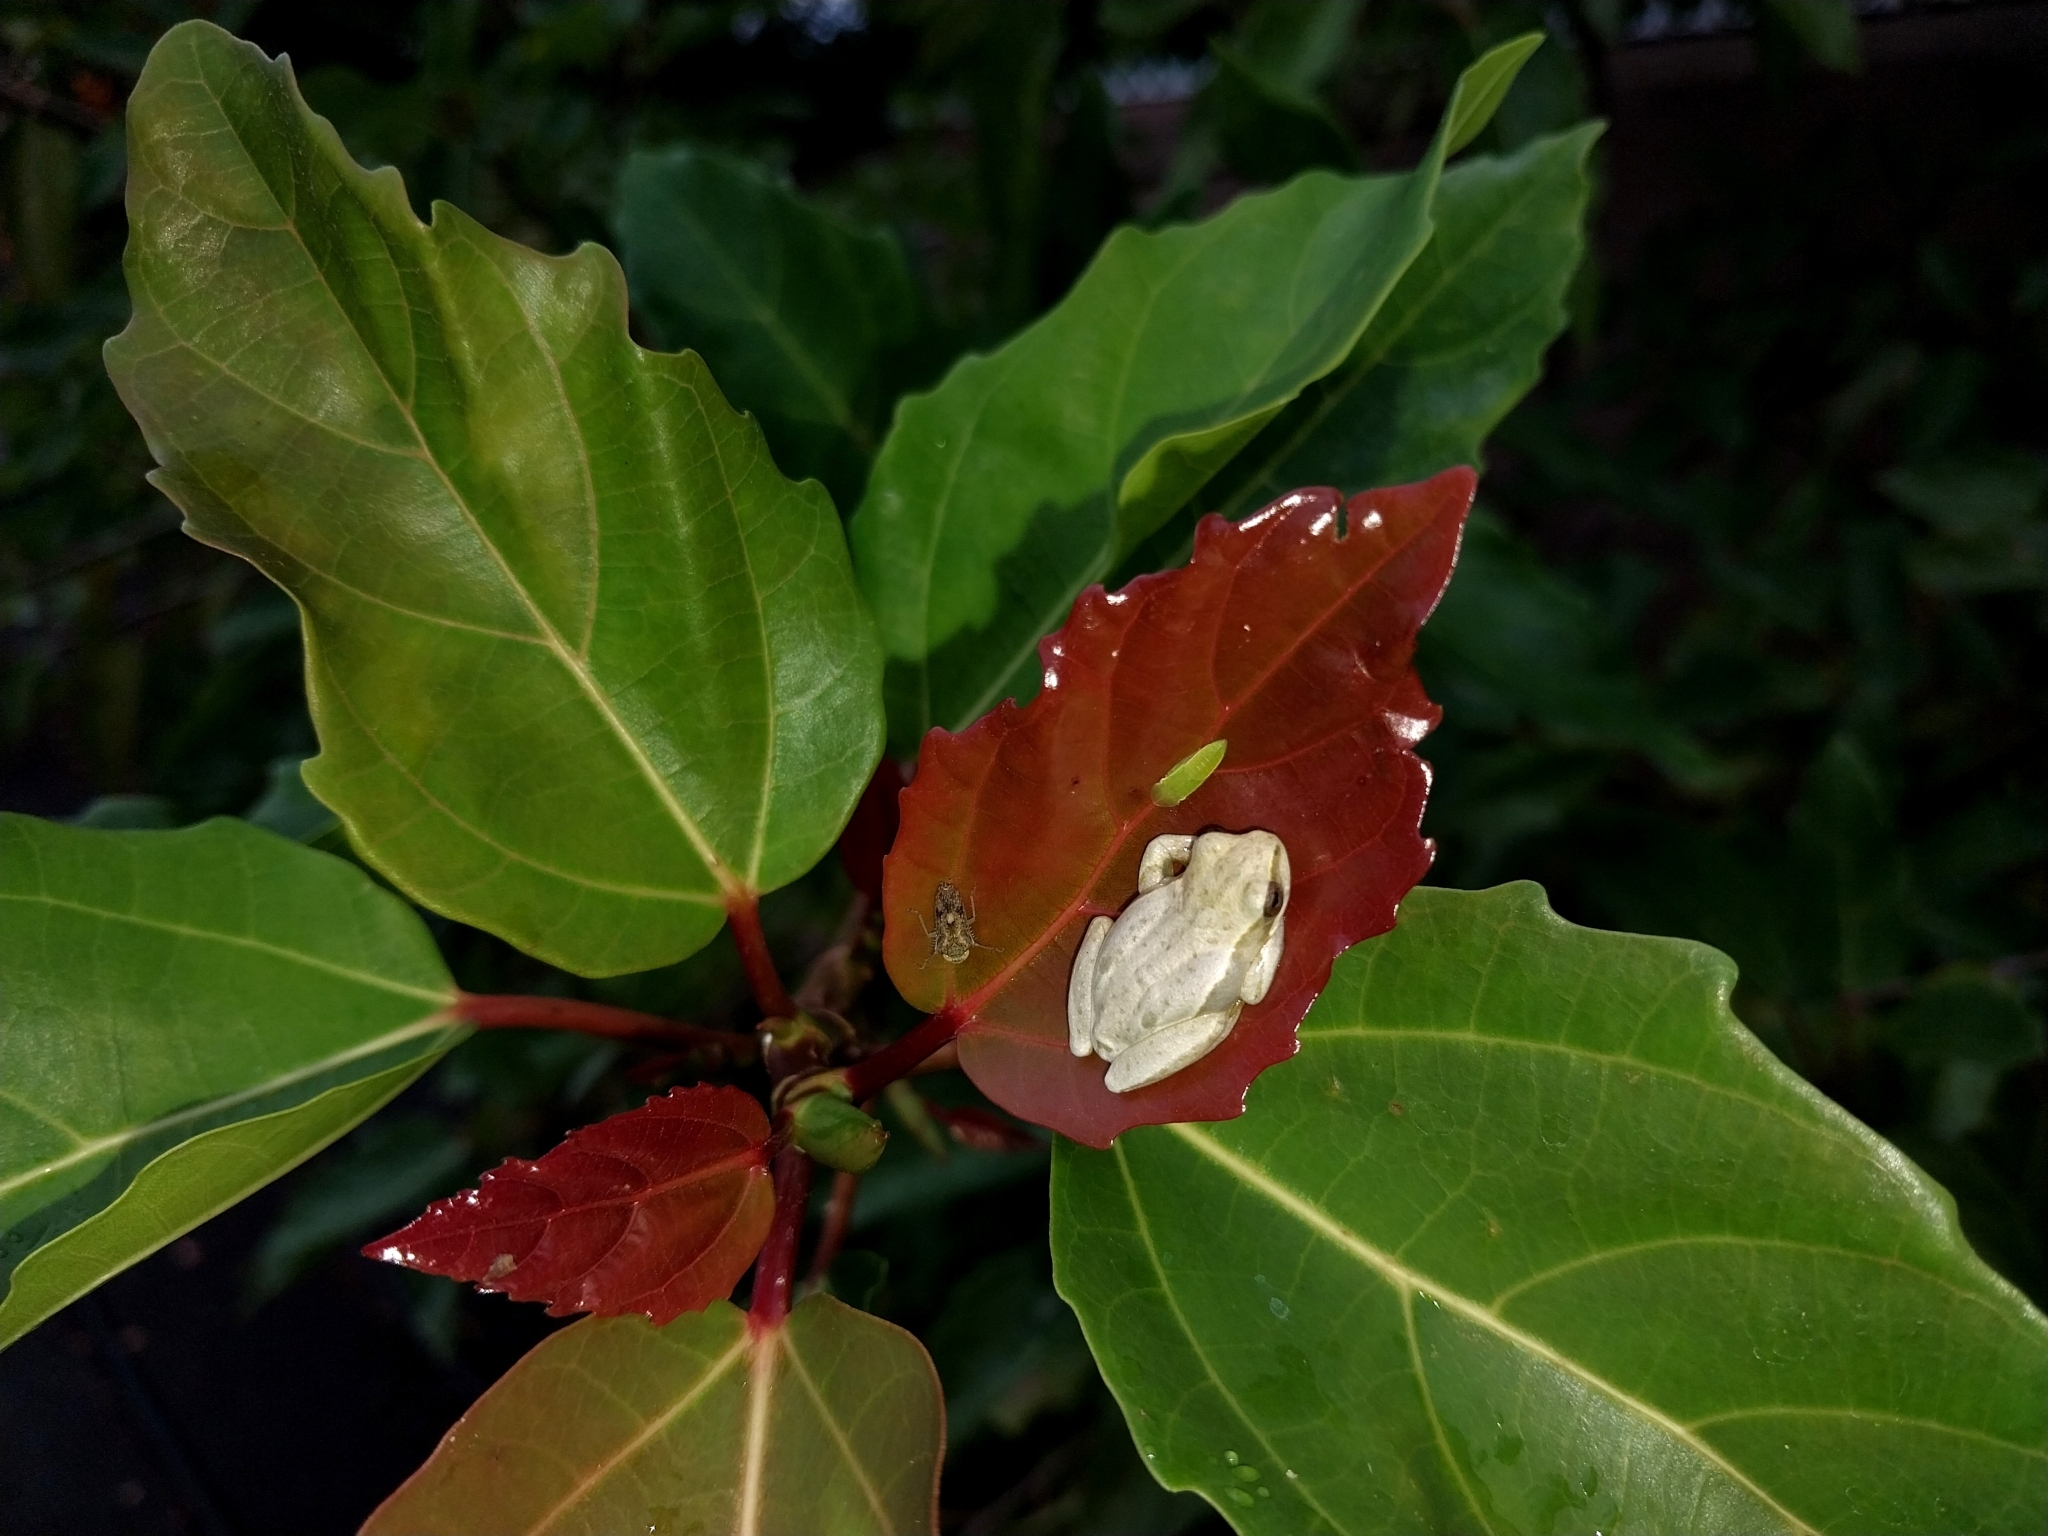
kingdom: Animalia
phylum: Chordata
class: Amphibia
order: Anura
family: Hyperoliidae
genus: Hyperolius
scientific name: Hyperolius marmoratus
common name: Painted reed frog
